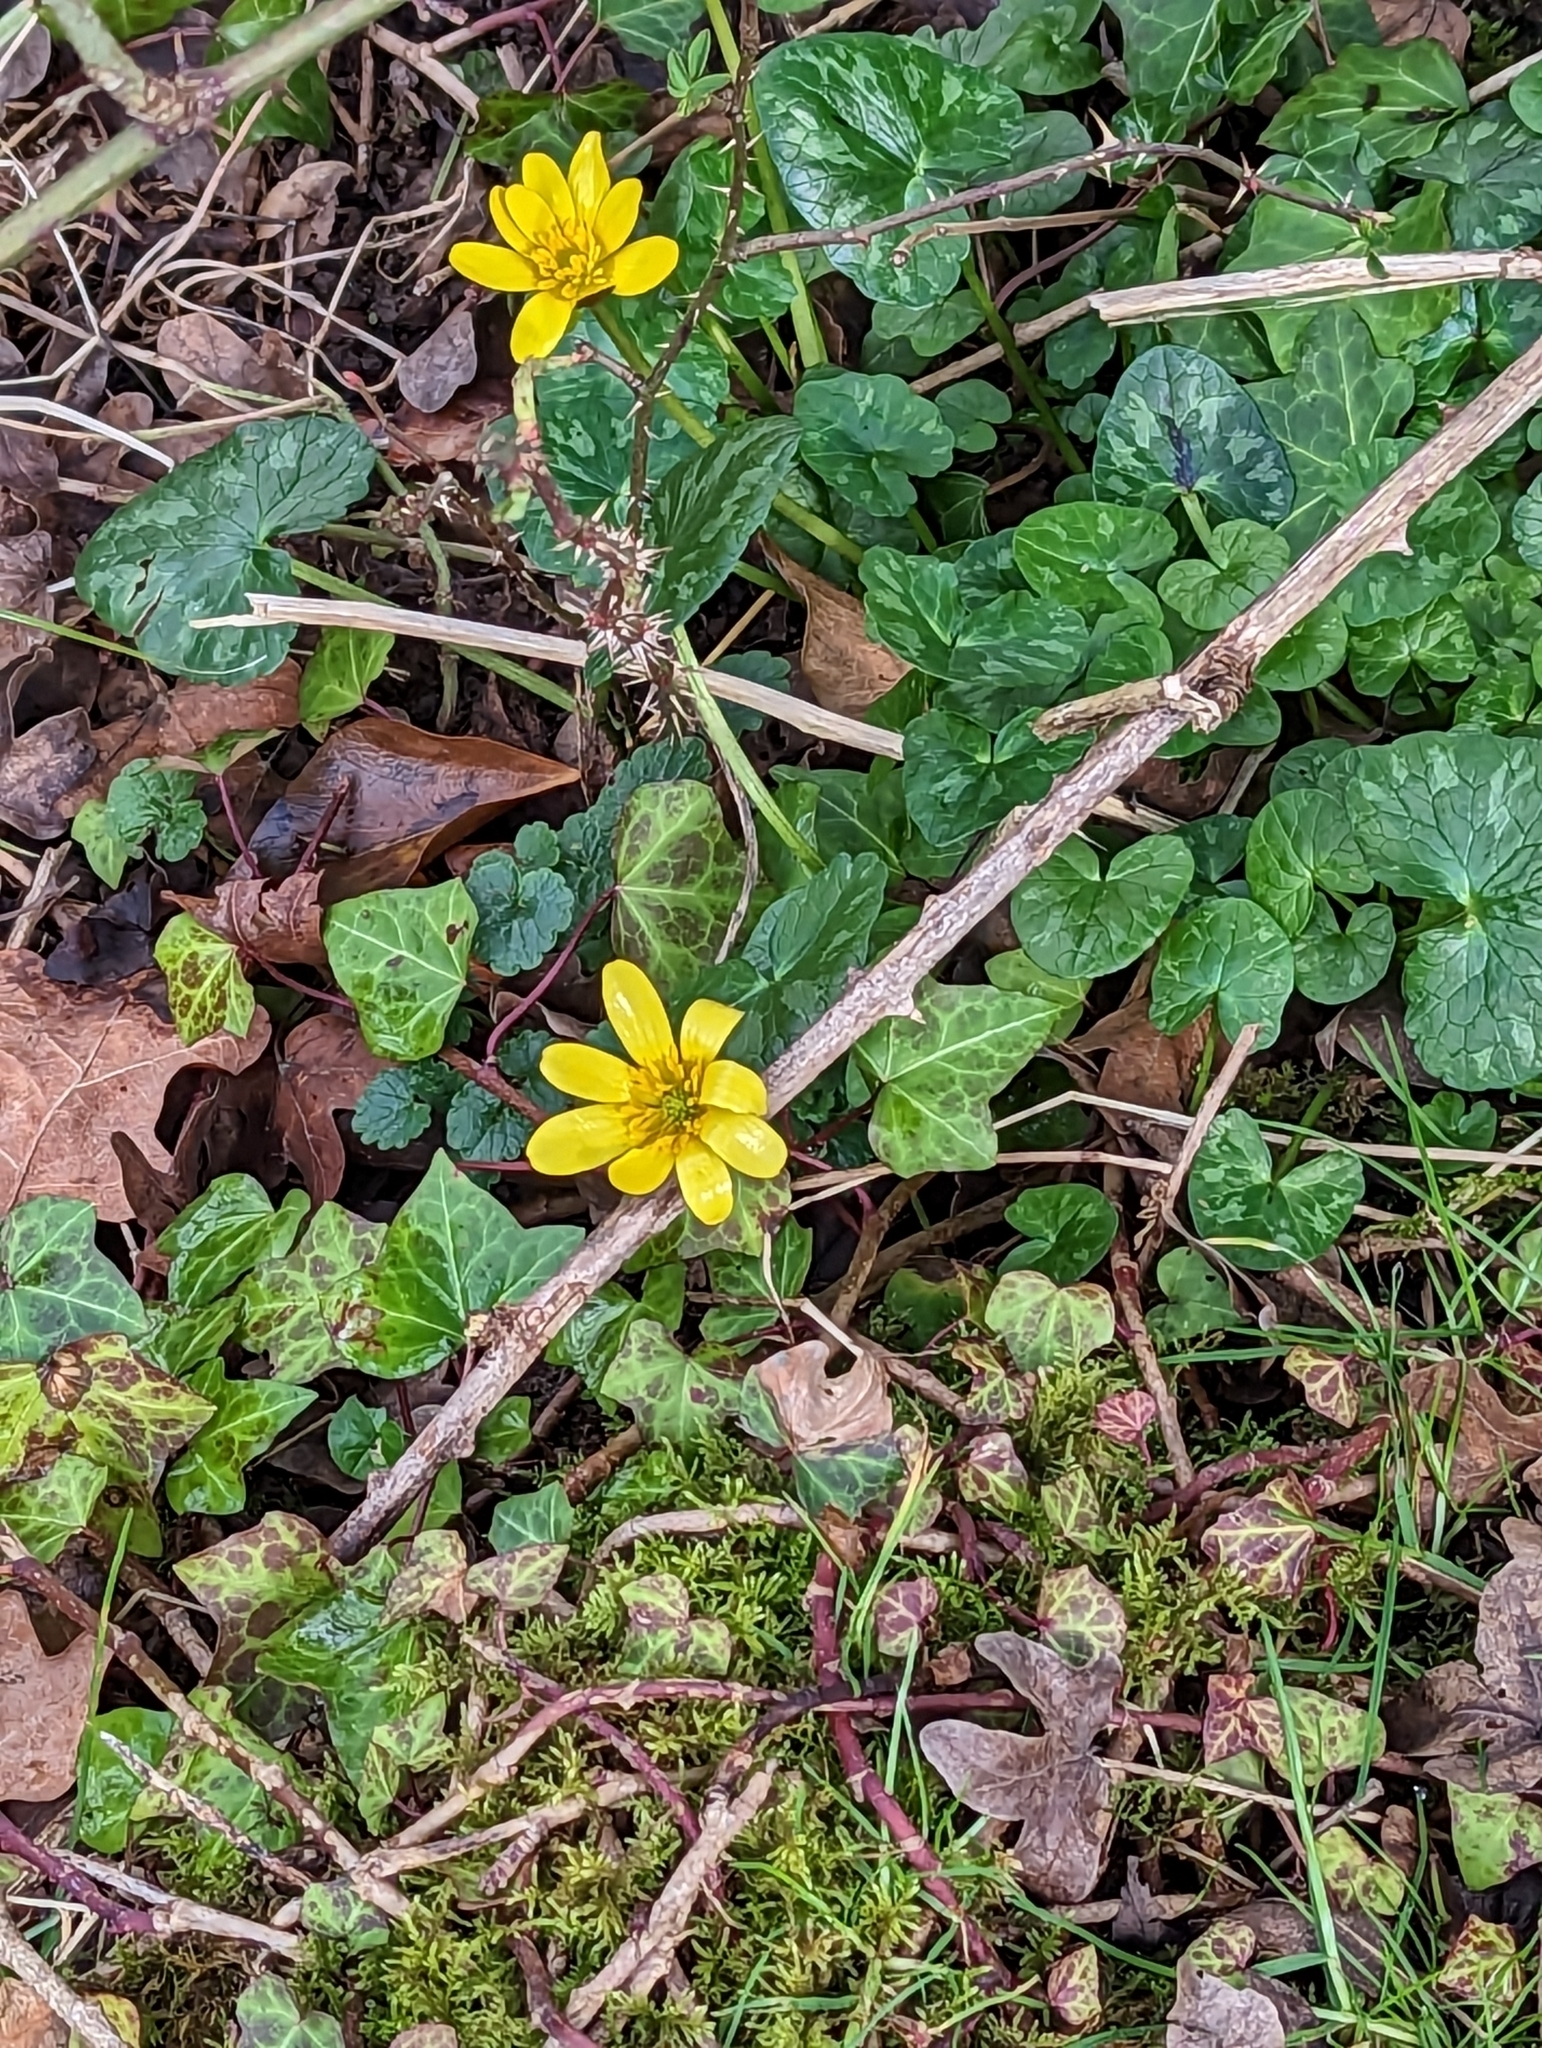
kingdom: Plantae
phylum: Tracheophyta
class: Magnoliopsida
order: Ranunculales
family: Ranunculaceae
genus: Ficaria
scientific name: Ficaria verna
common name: Lesser celandine
